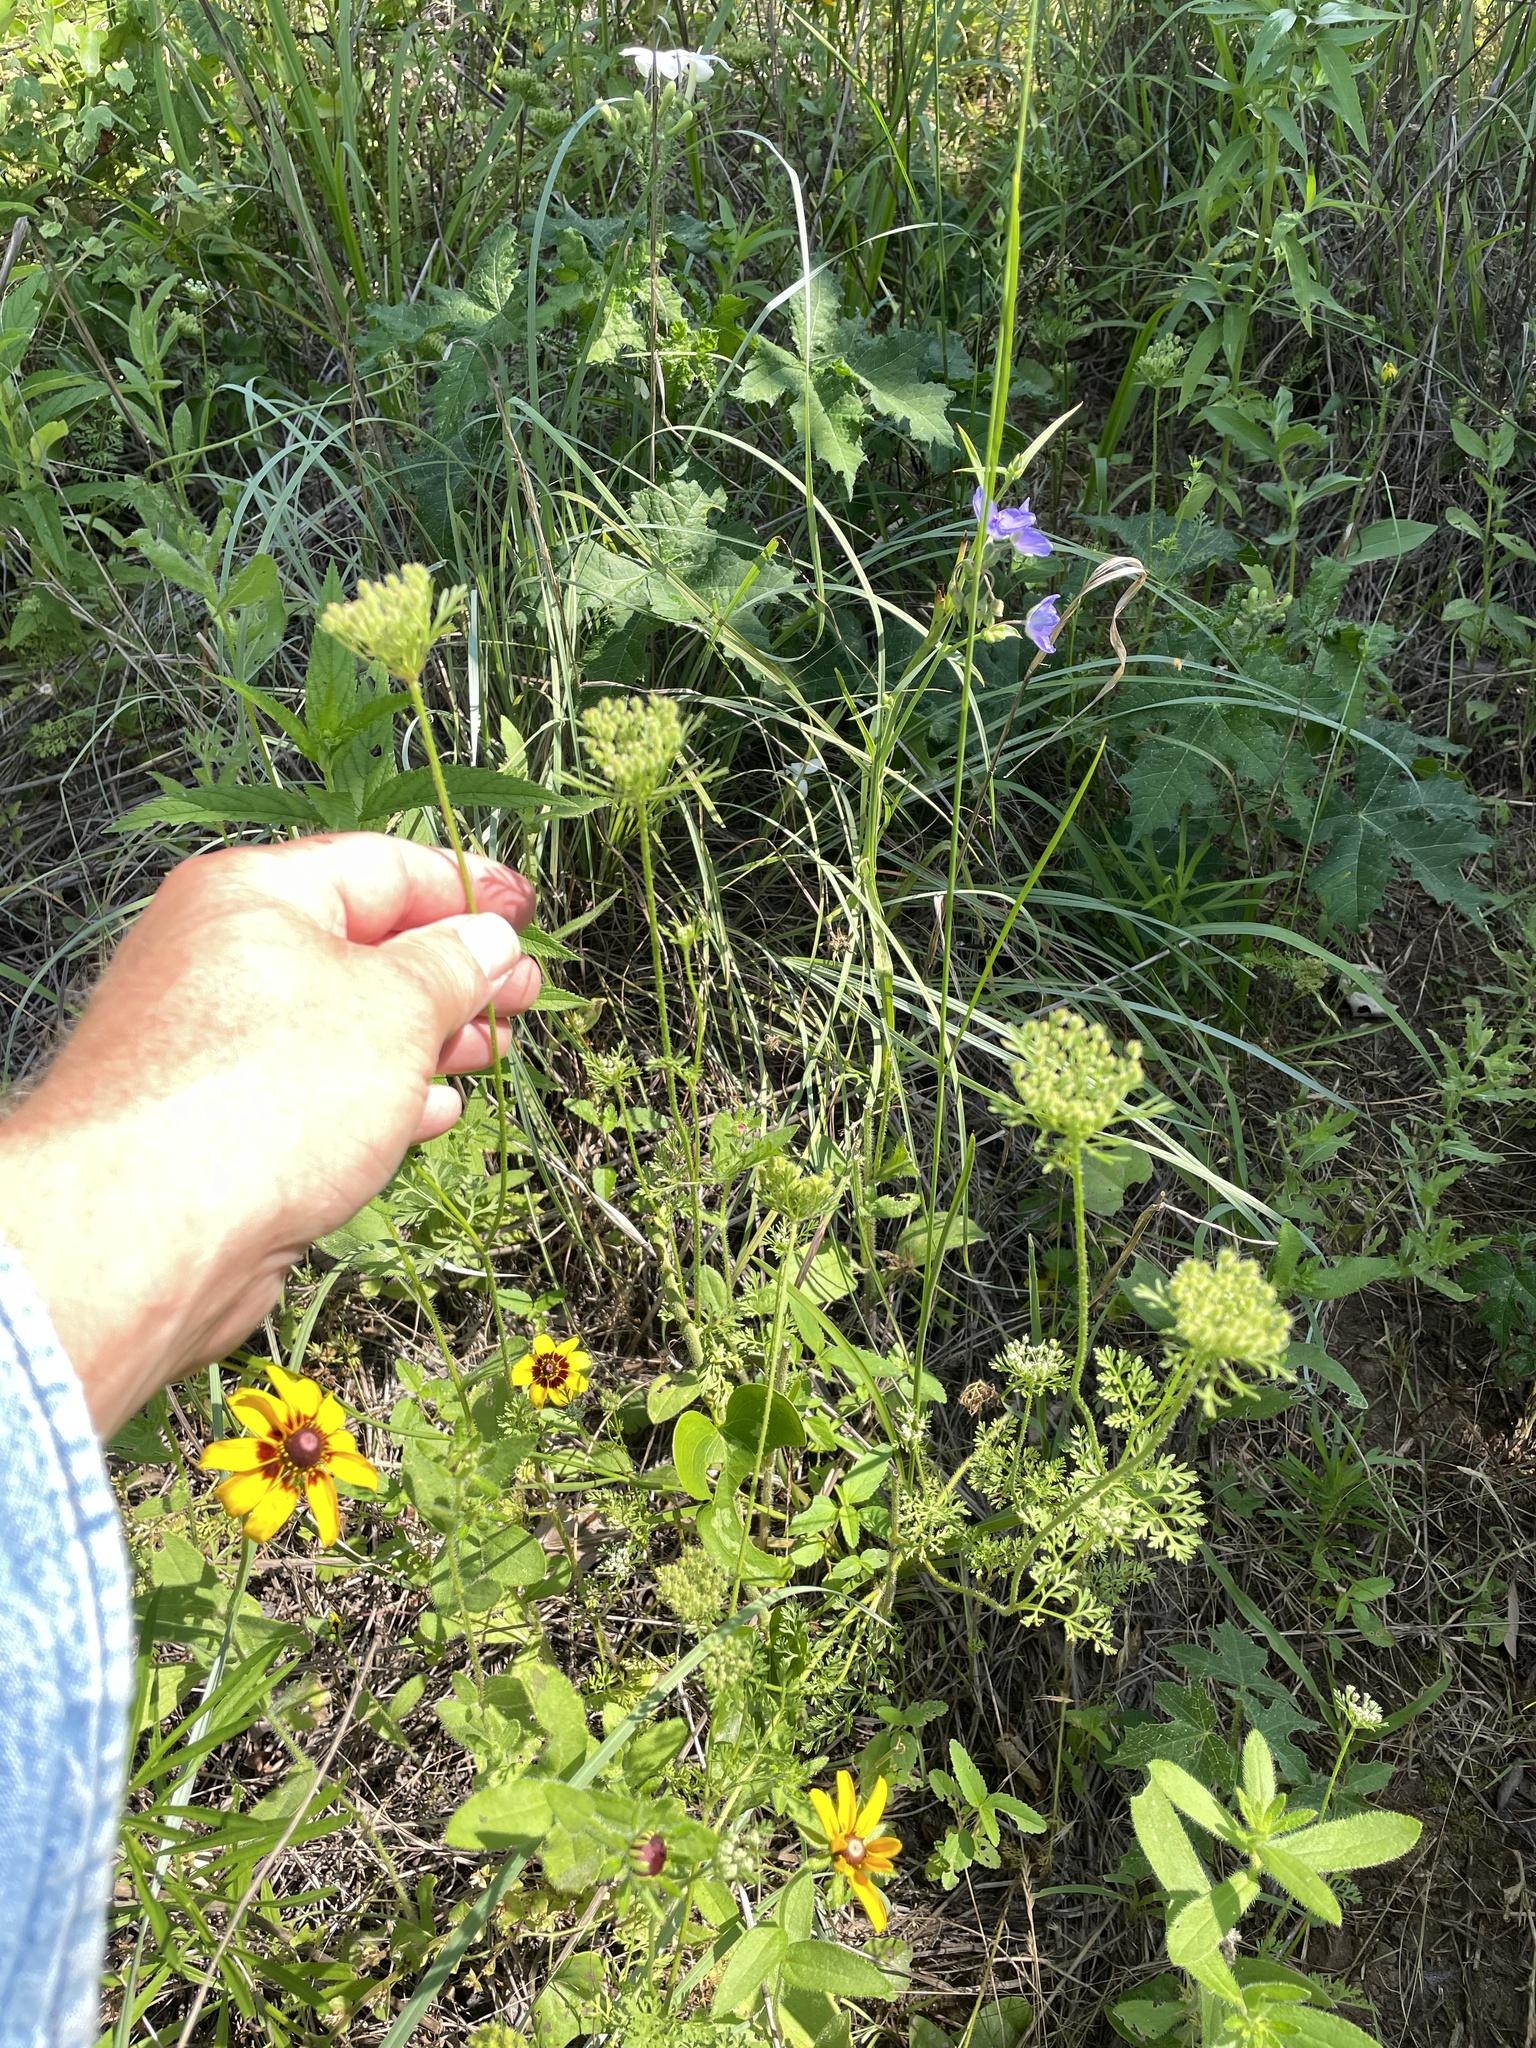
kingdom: Plantae
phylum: Tracheophyta
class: Magnoliopsida
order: Apiales
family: Apiaceae
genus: Daucus
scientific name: Daucus pusillus
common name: Southwest wild carrot
